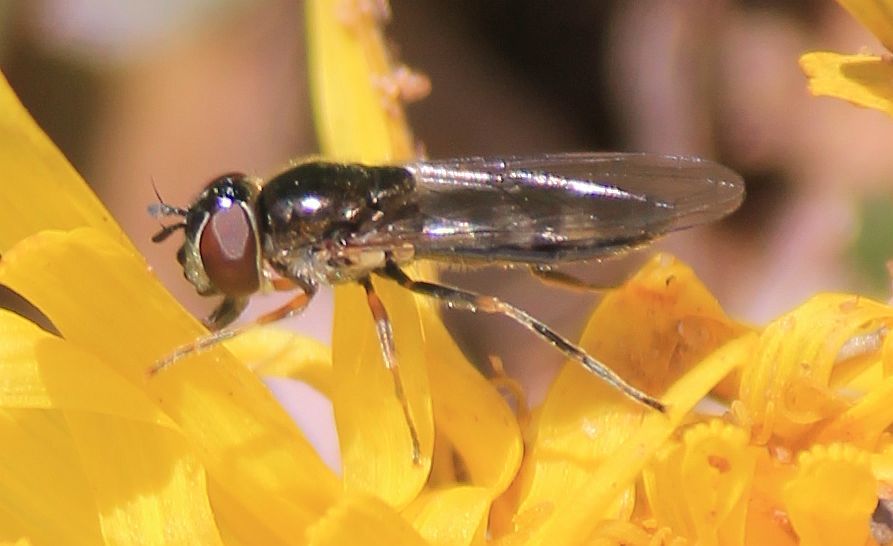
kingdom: Animalia
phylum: Arthropoda
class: Insecta
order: Diptera
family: Syrphidae
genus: Platycheirus
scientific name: Platycheirus albimanus
